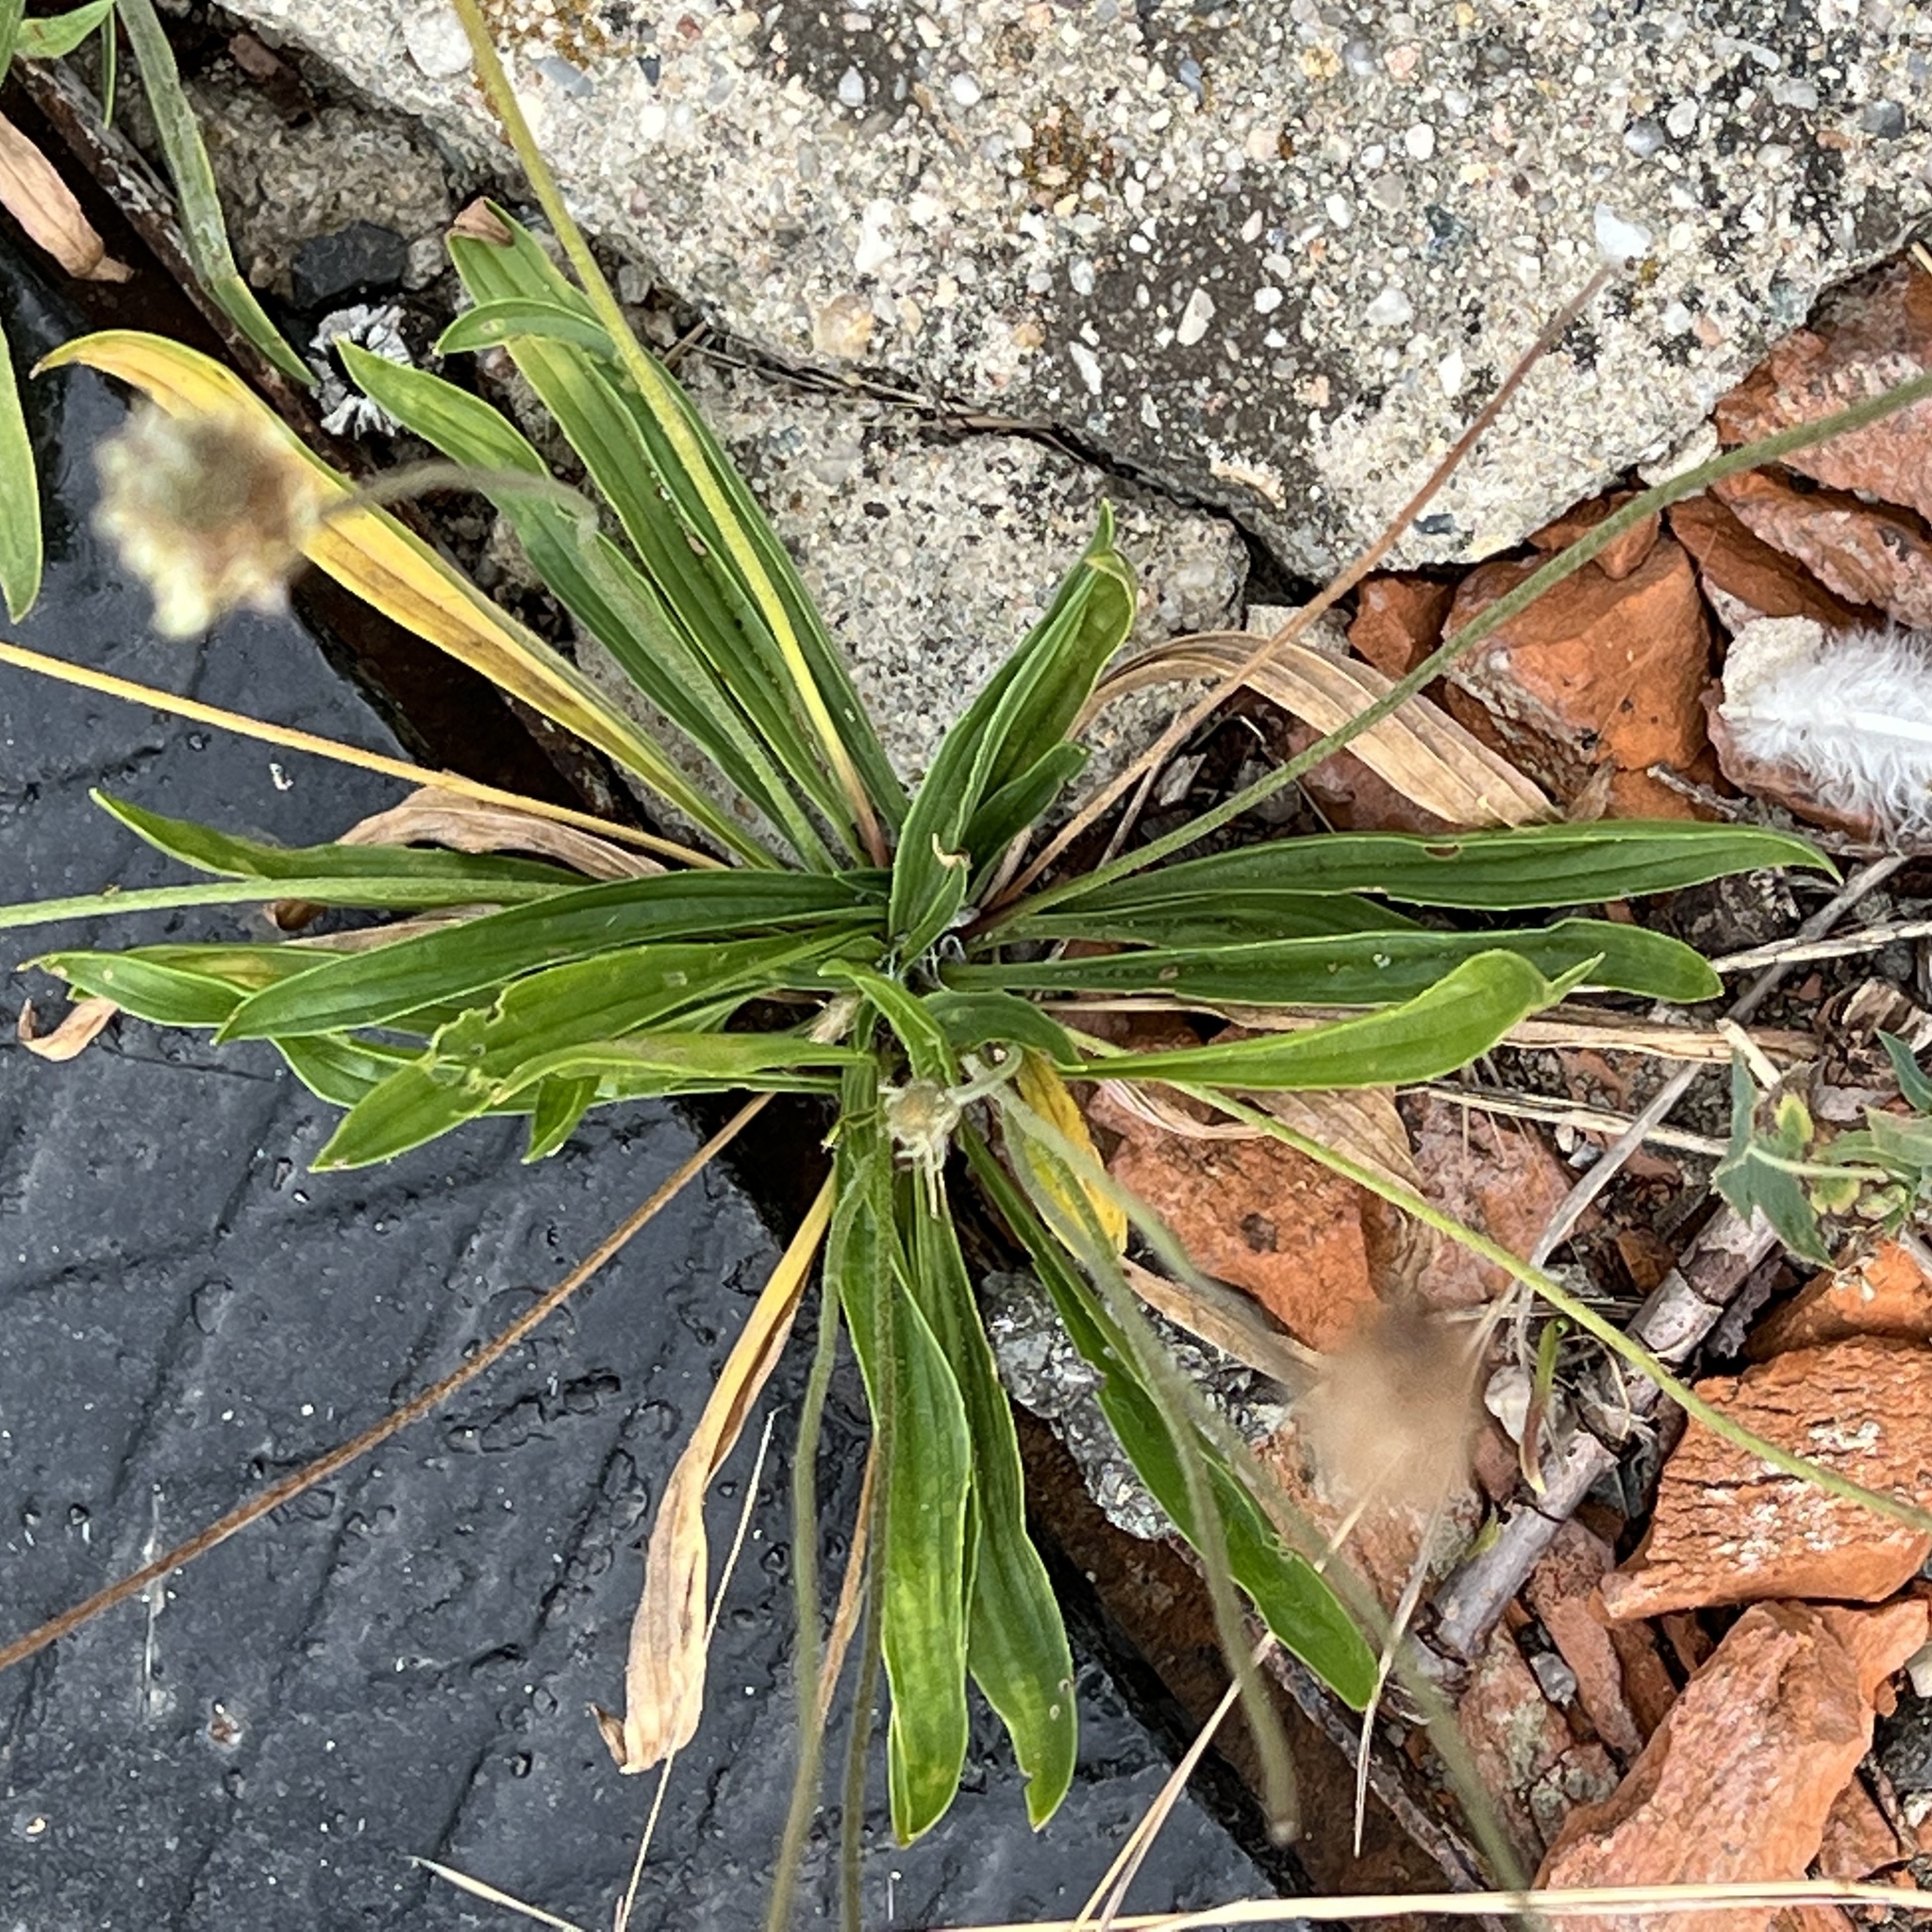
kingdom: Plantae
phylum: Tracheophyta
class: Magnoliopsida
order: Lamiales
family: Plantaginaceae
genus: Plantago
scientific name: Plantago lanceolata
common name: Ribwort plantain
